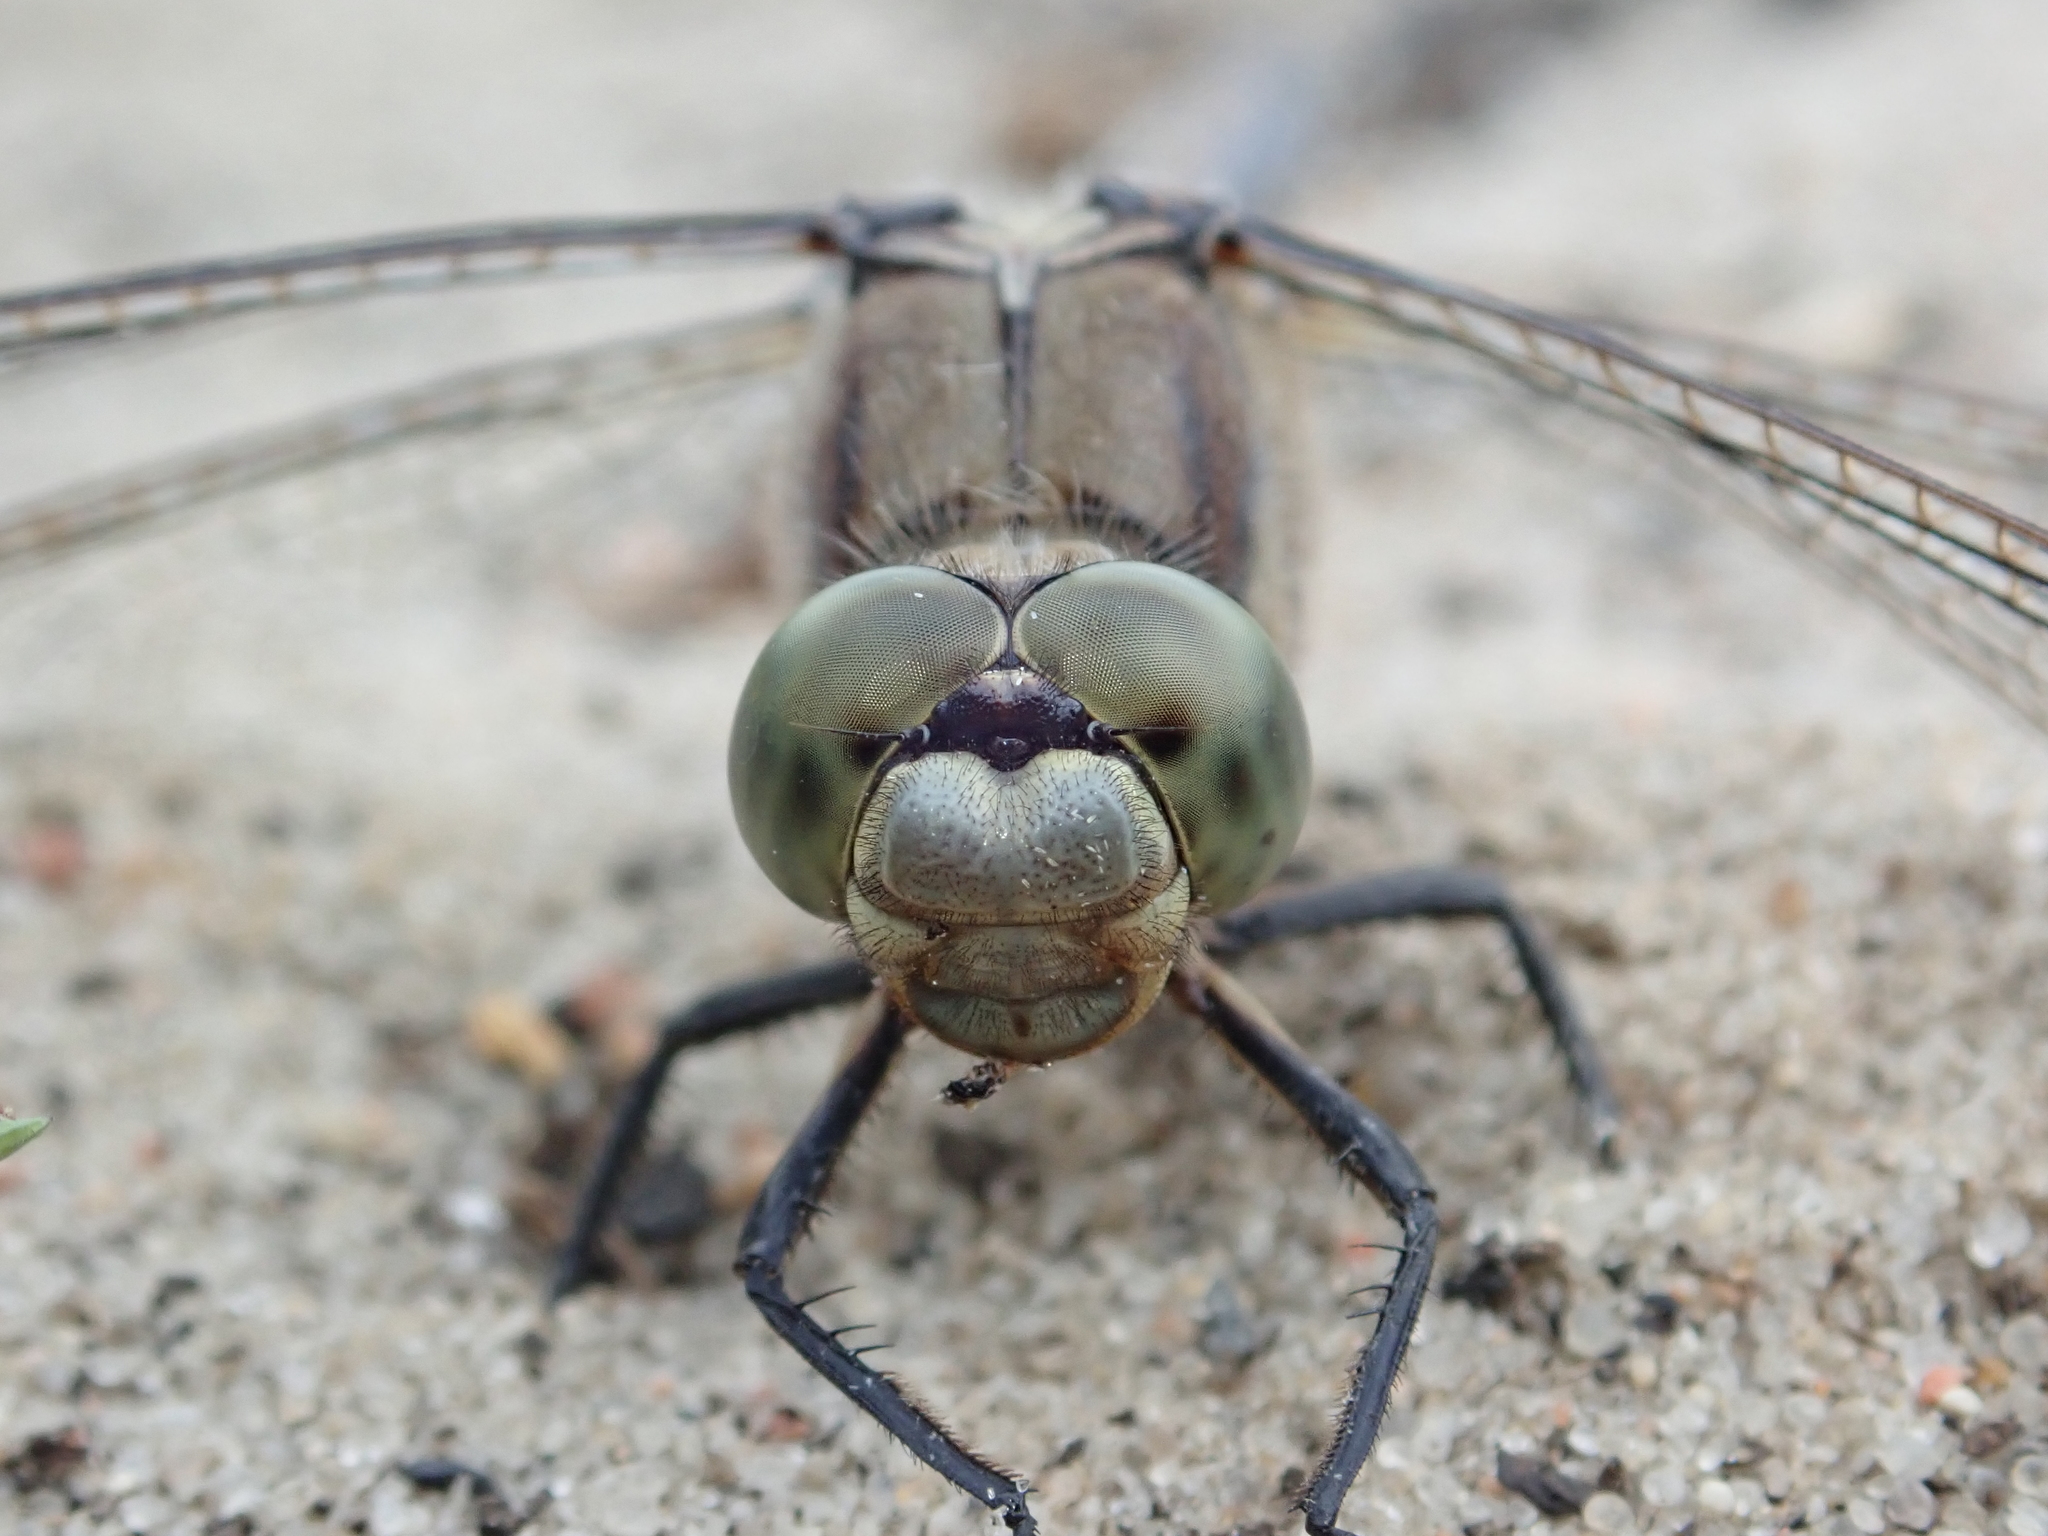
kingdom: Animalia
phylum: Arthropoda
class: Insecta
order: Odonata
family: Libellulidae
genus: Orthetrum
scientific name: Orthetrum cancellatum
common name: Black-tailed skimmer
